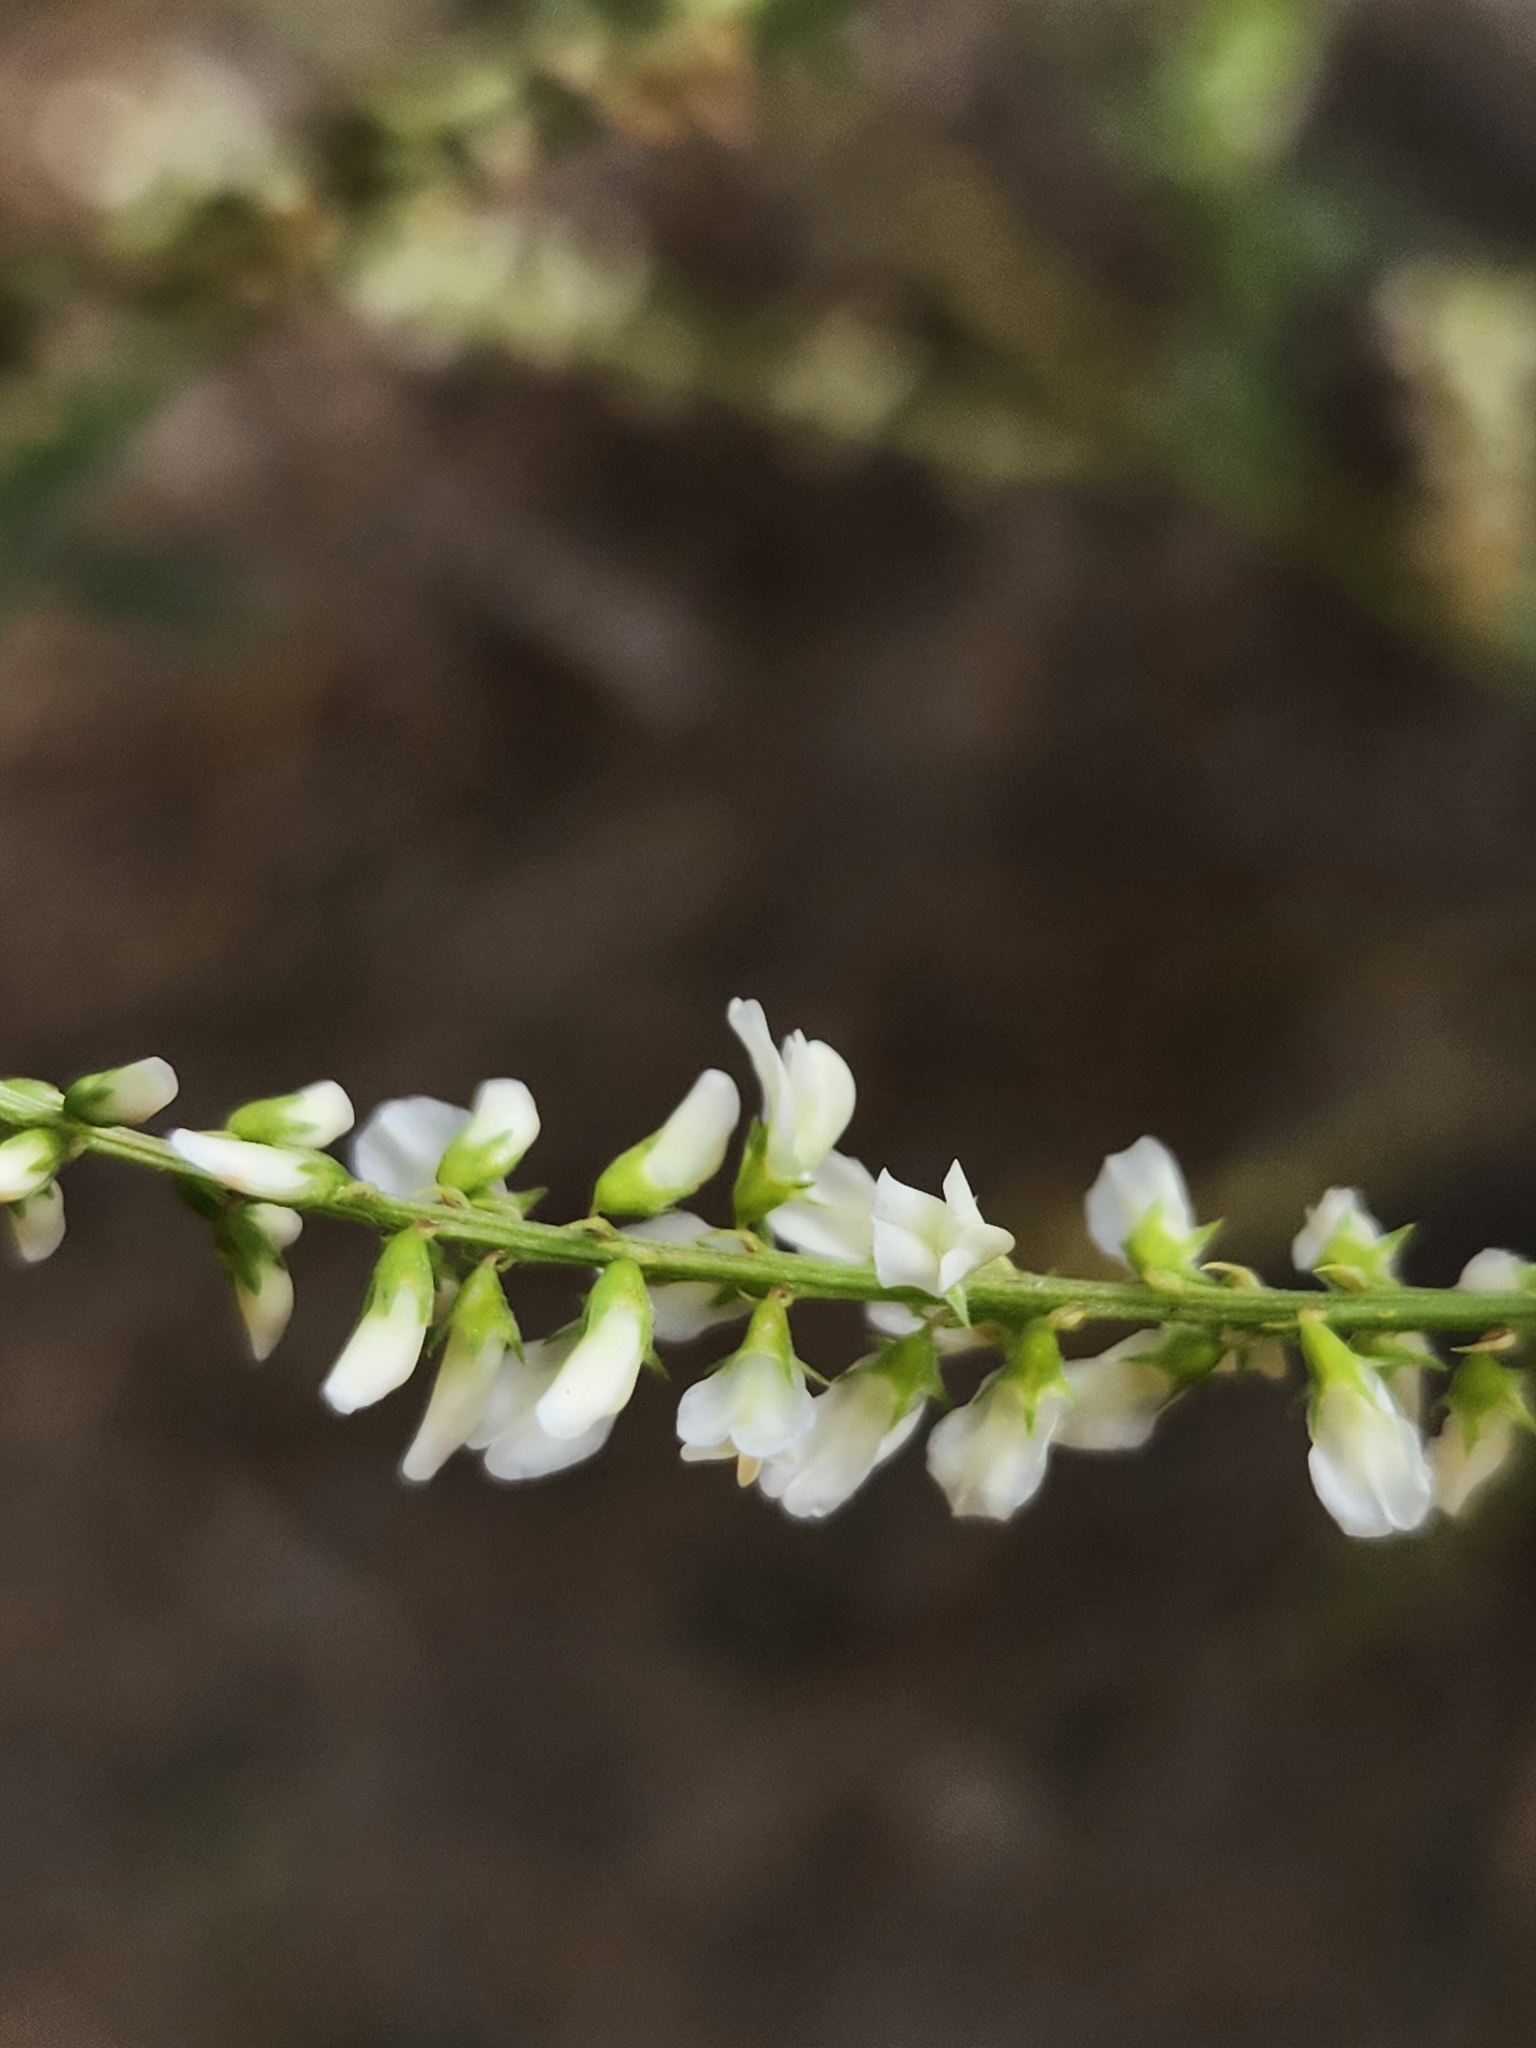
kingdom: Plantae
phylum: Tracheophyta
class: Magnoliopsida
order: Fabales
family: Fabaceae
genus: Melilotus
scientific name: Melilotus albus
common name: White melilot
